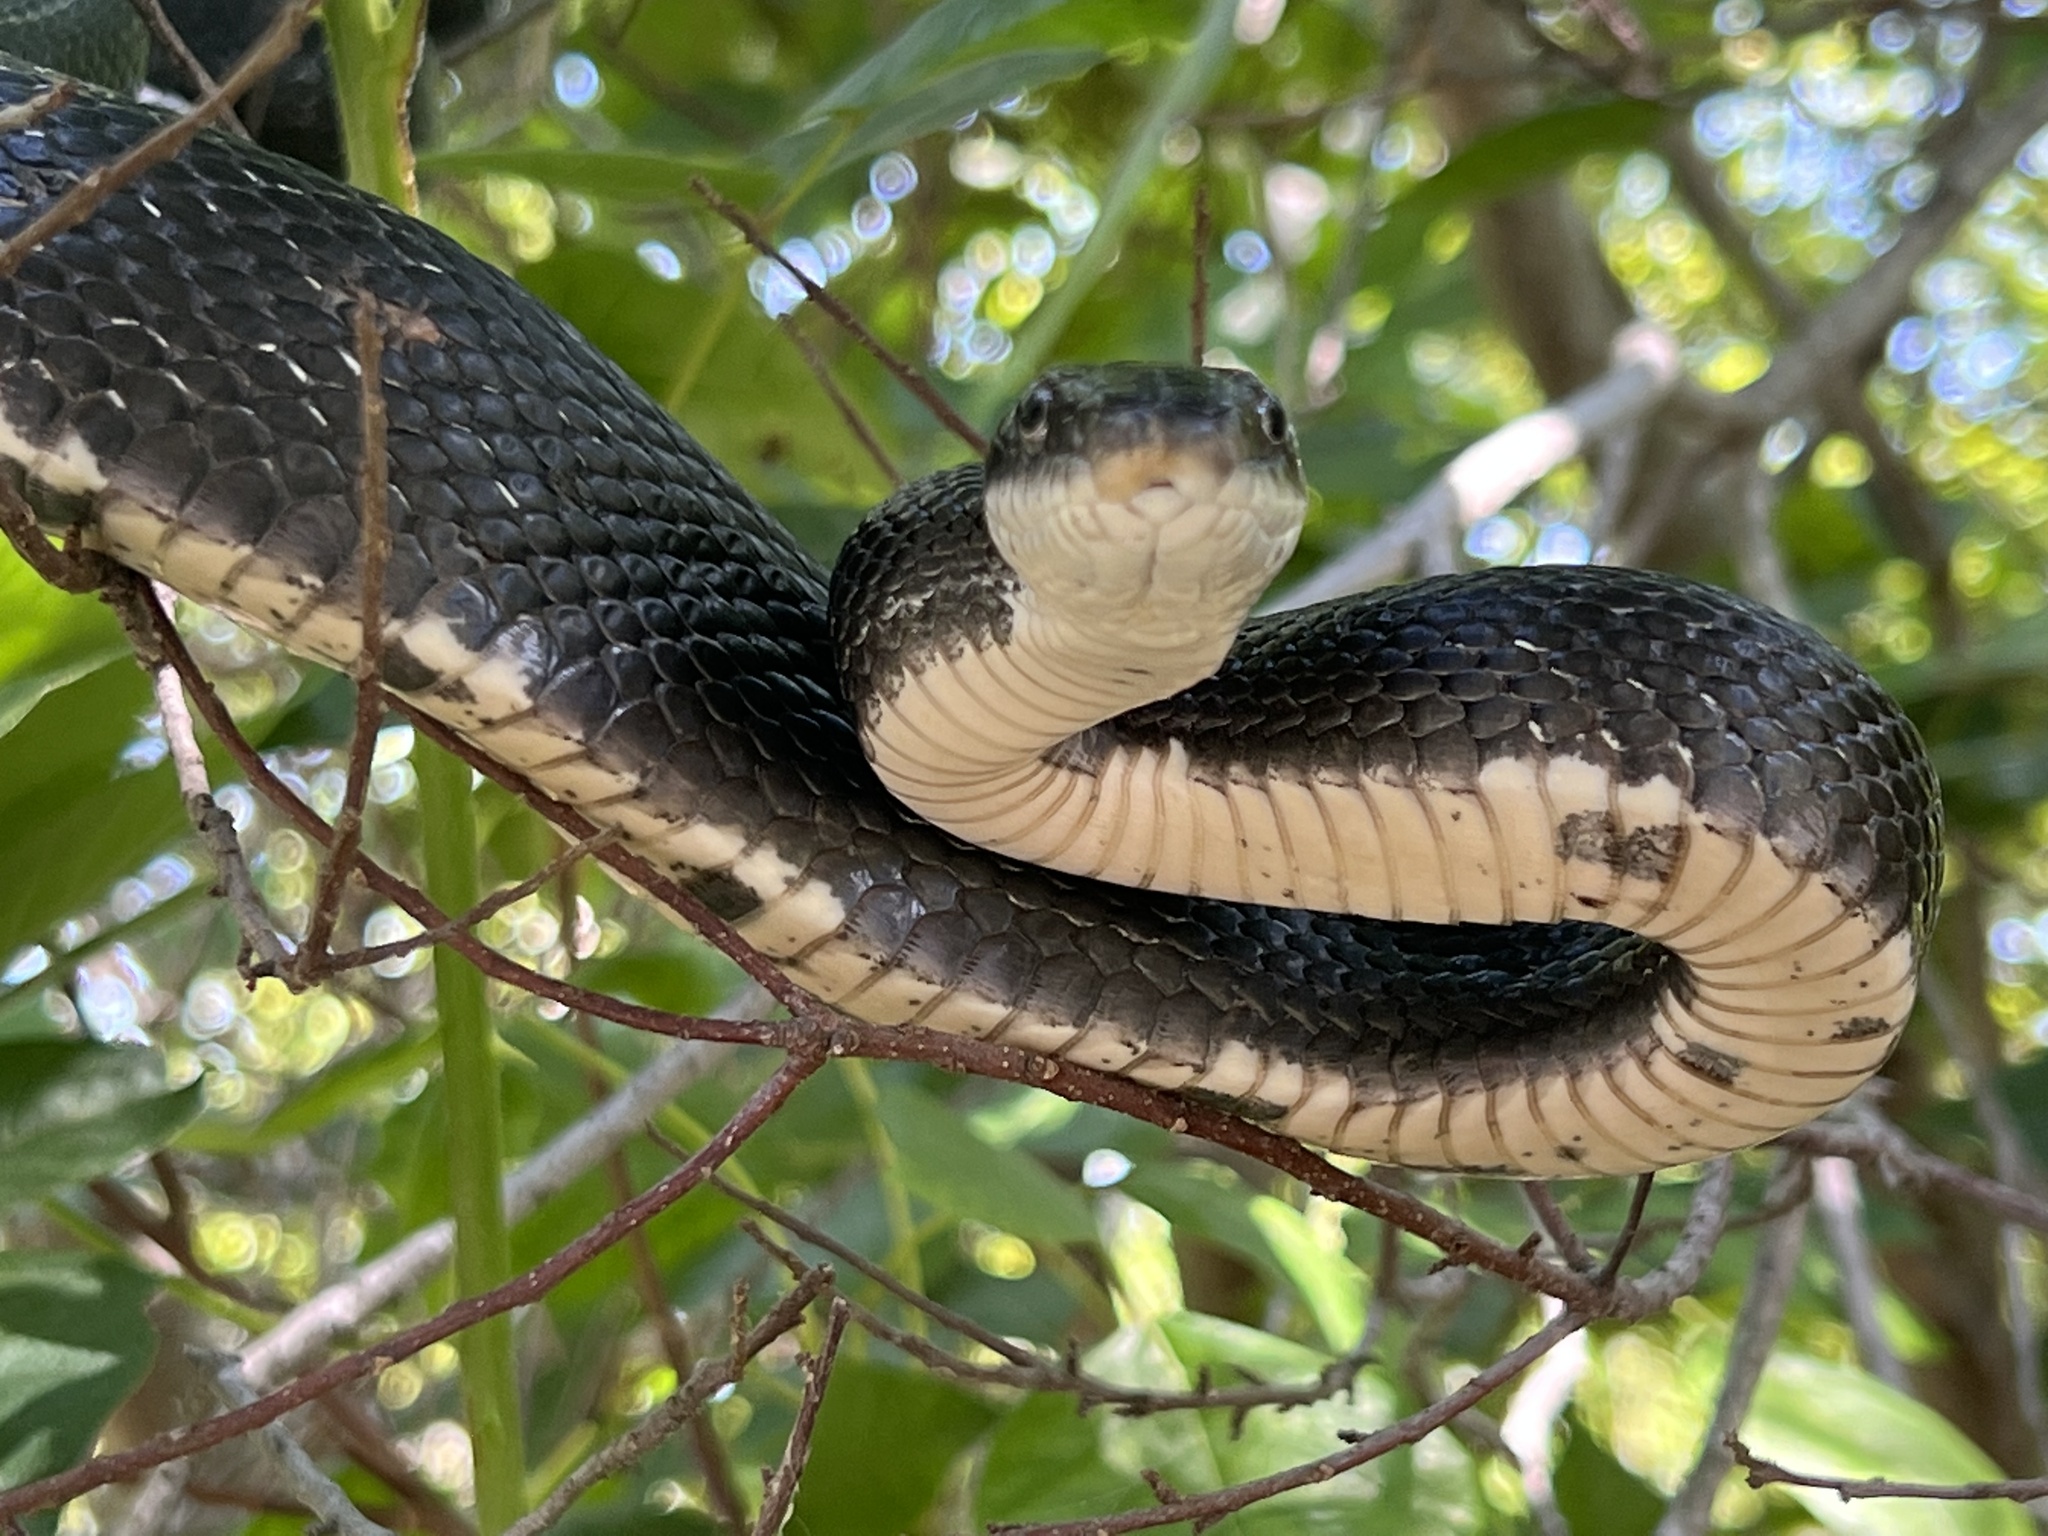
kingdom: Animalia
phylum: Chordata
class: Squamata
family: Colubridae
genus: Pantherophis
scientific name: Pantherophis alleghaniensis
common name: Eastern rat snake
